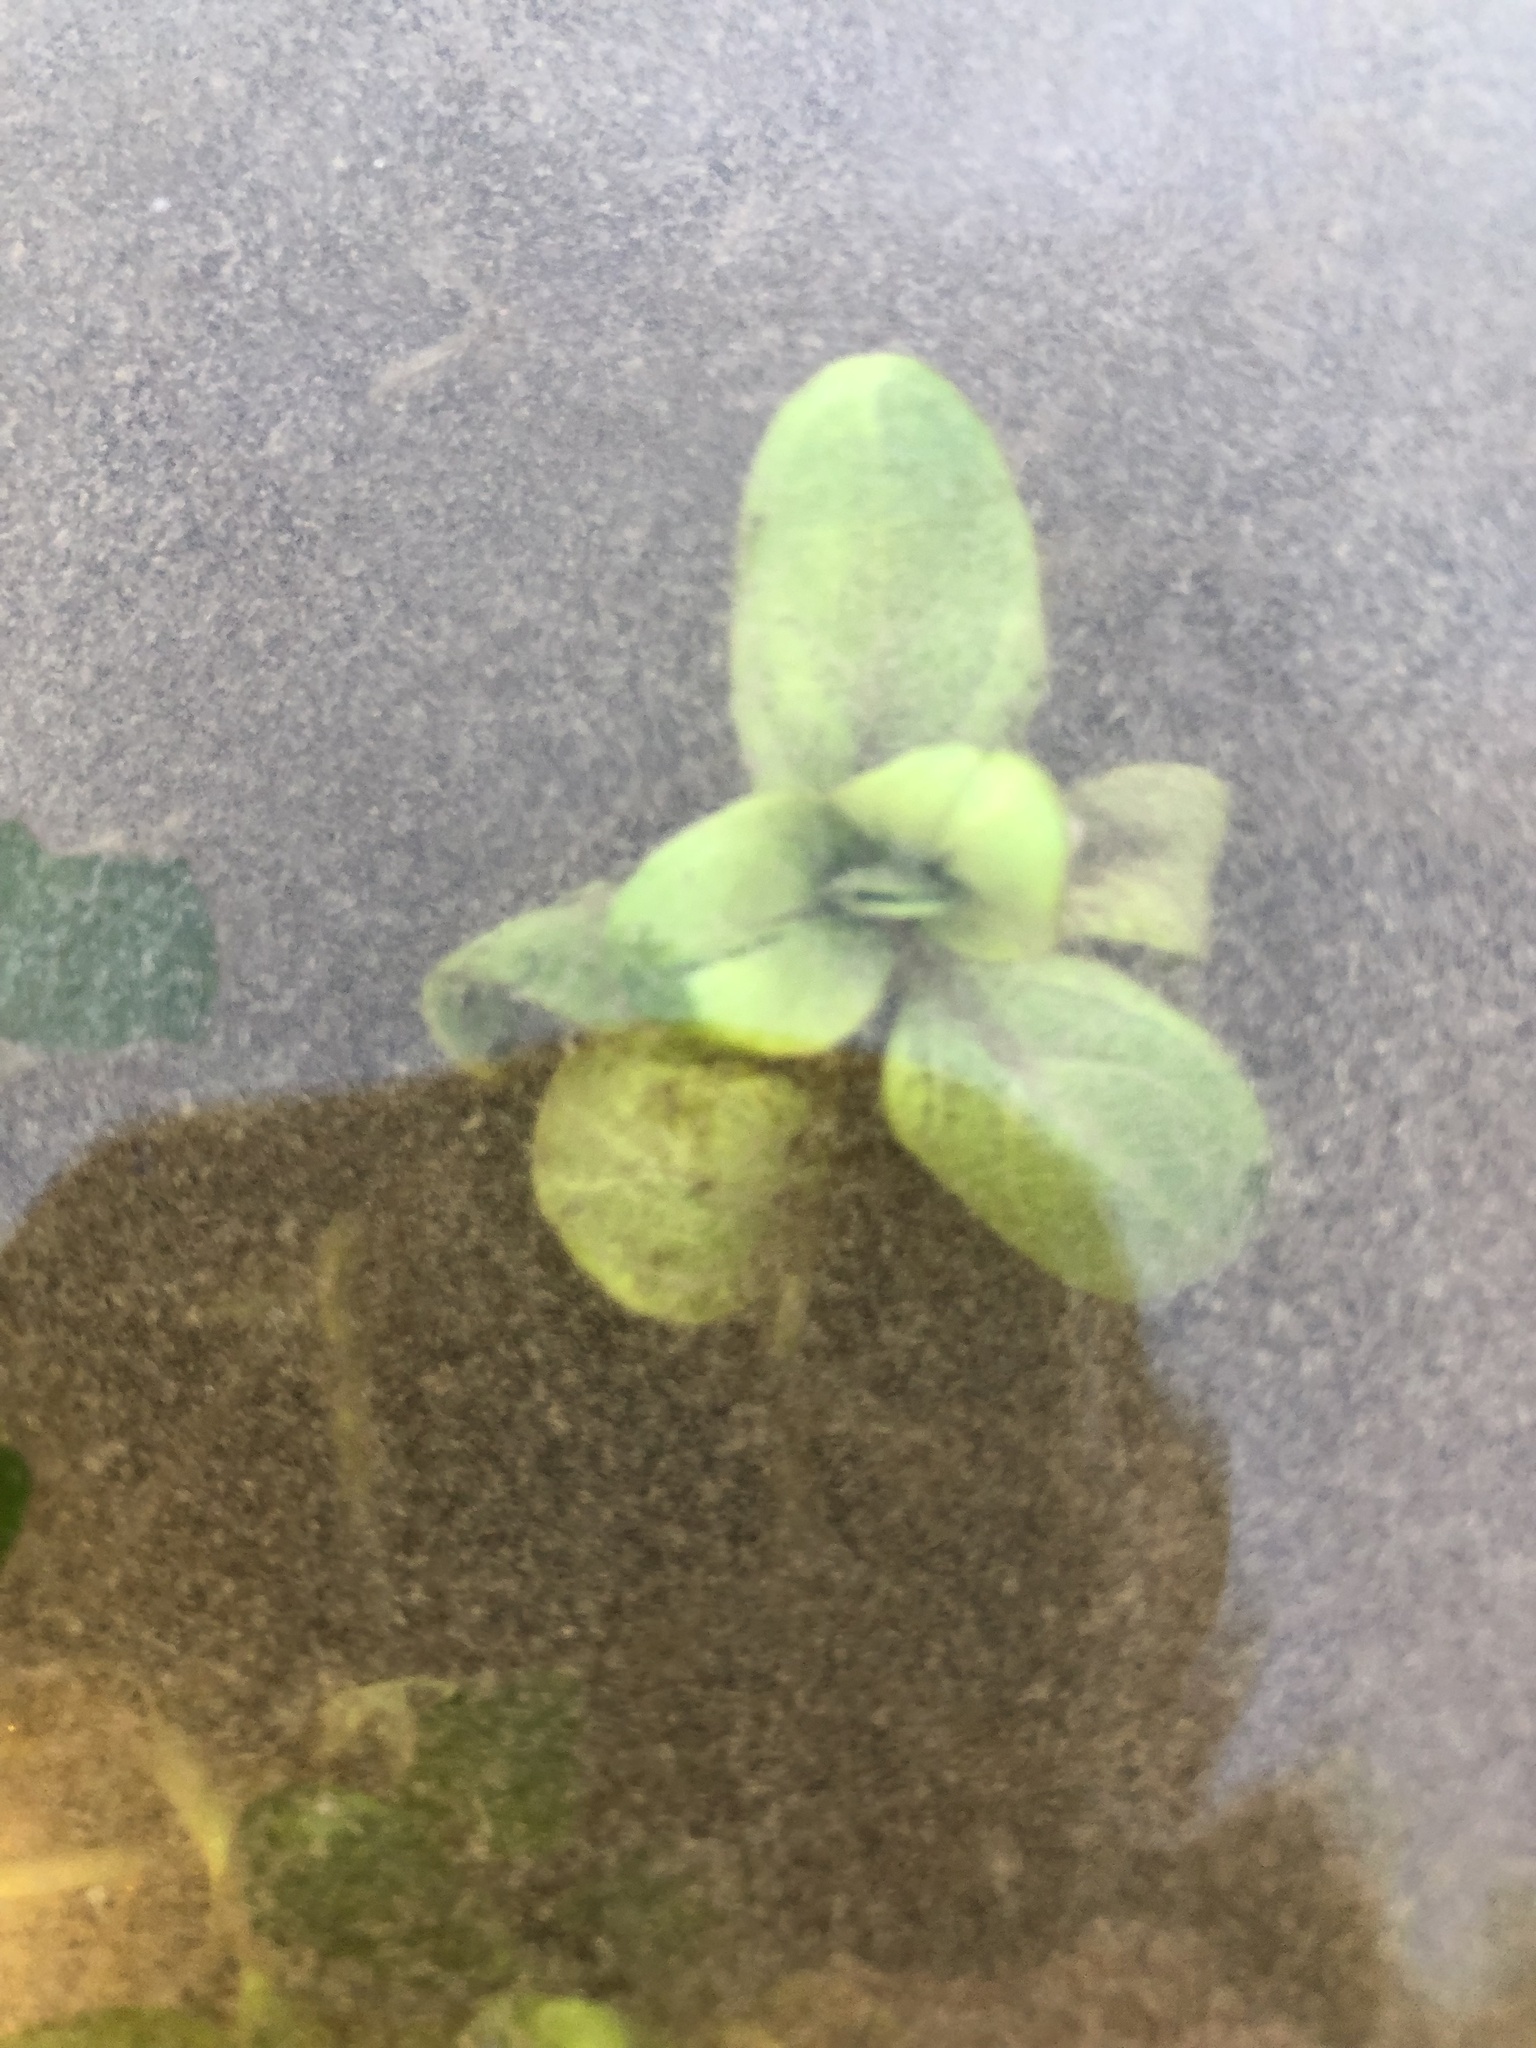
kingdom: Plantae
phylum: Tracheophyta
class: Magnoliopsida
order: Myrtales
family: Onagraceae
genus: Ludwigia
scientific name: Ludwigia palustris
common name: Hampshire-purslane
